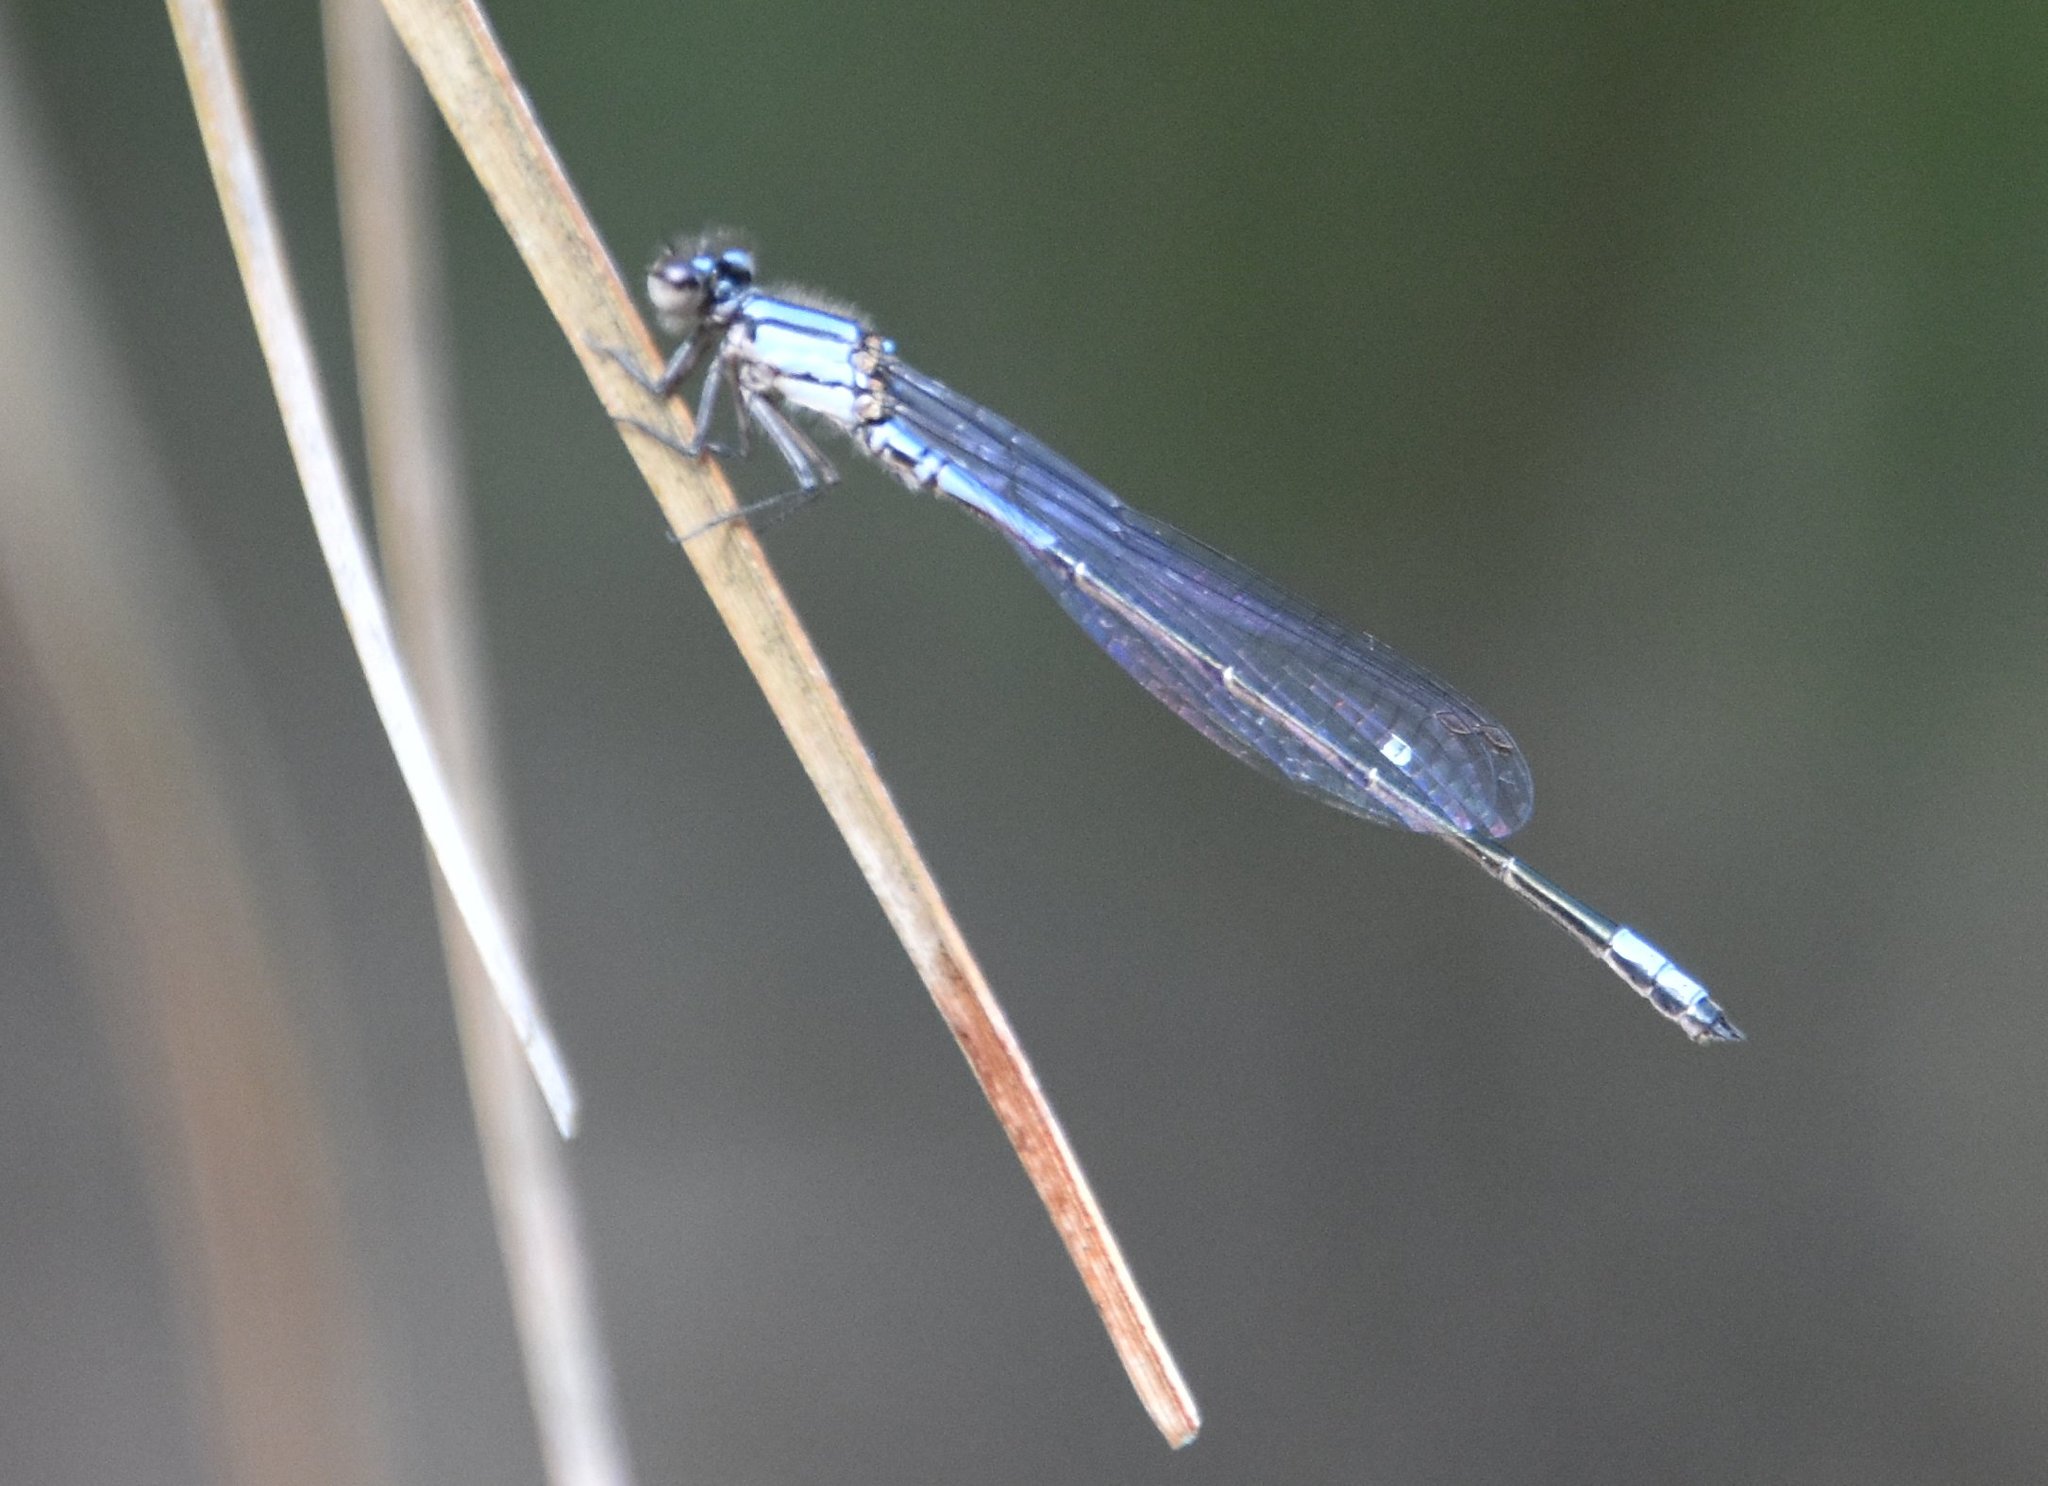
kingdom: Animalia
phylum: Arthropoda
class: Insecta
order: Odonata
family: Coenagrionidae
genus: Enallagma
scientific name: Enallagma cardenium
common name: Purple bluet
